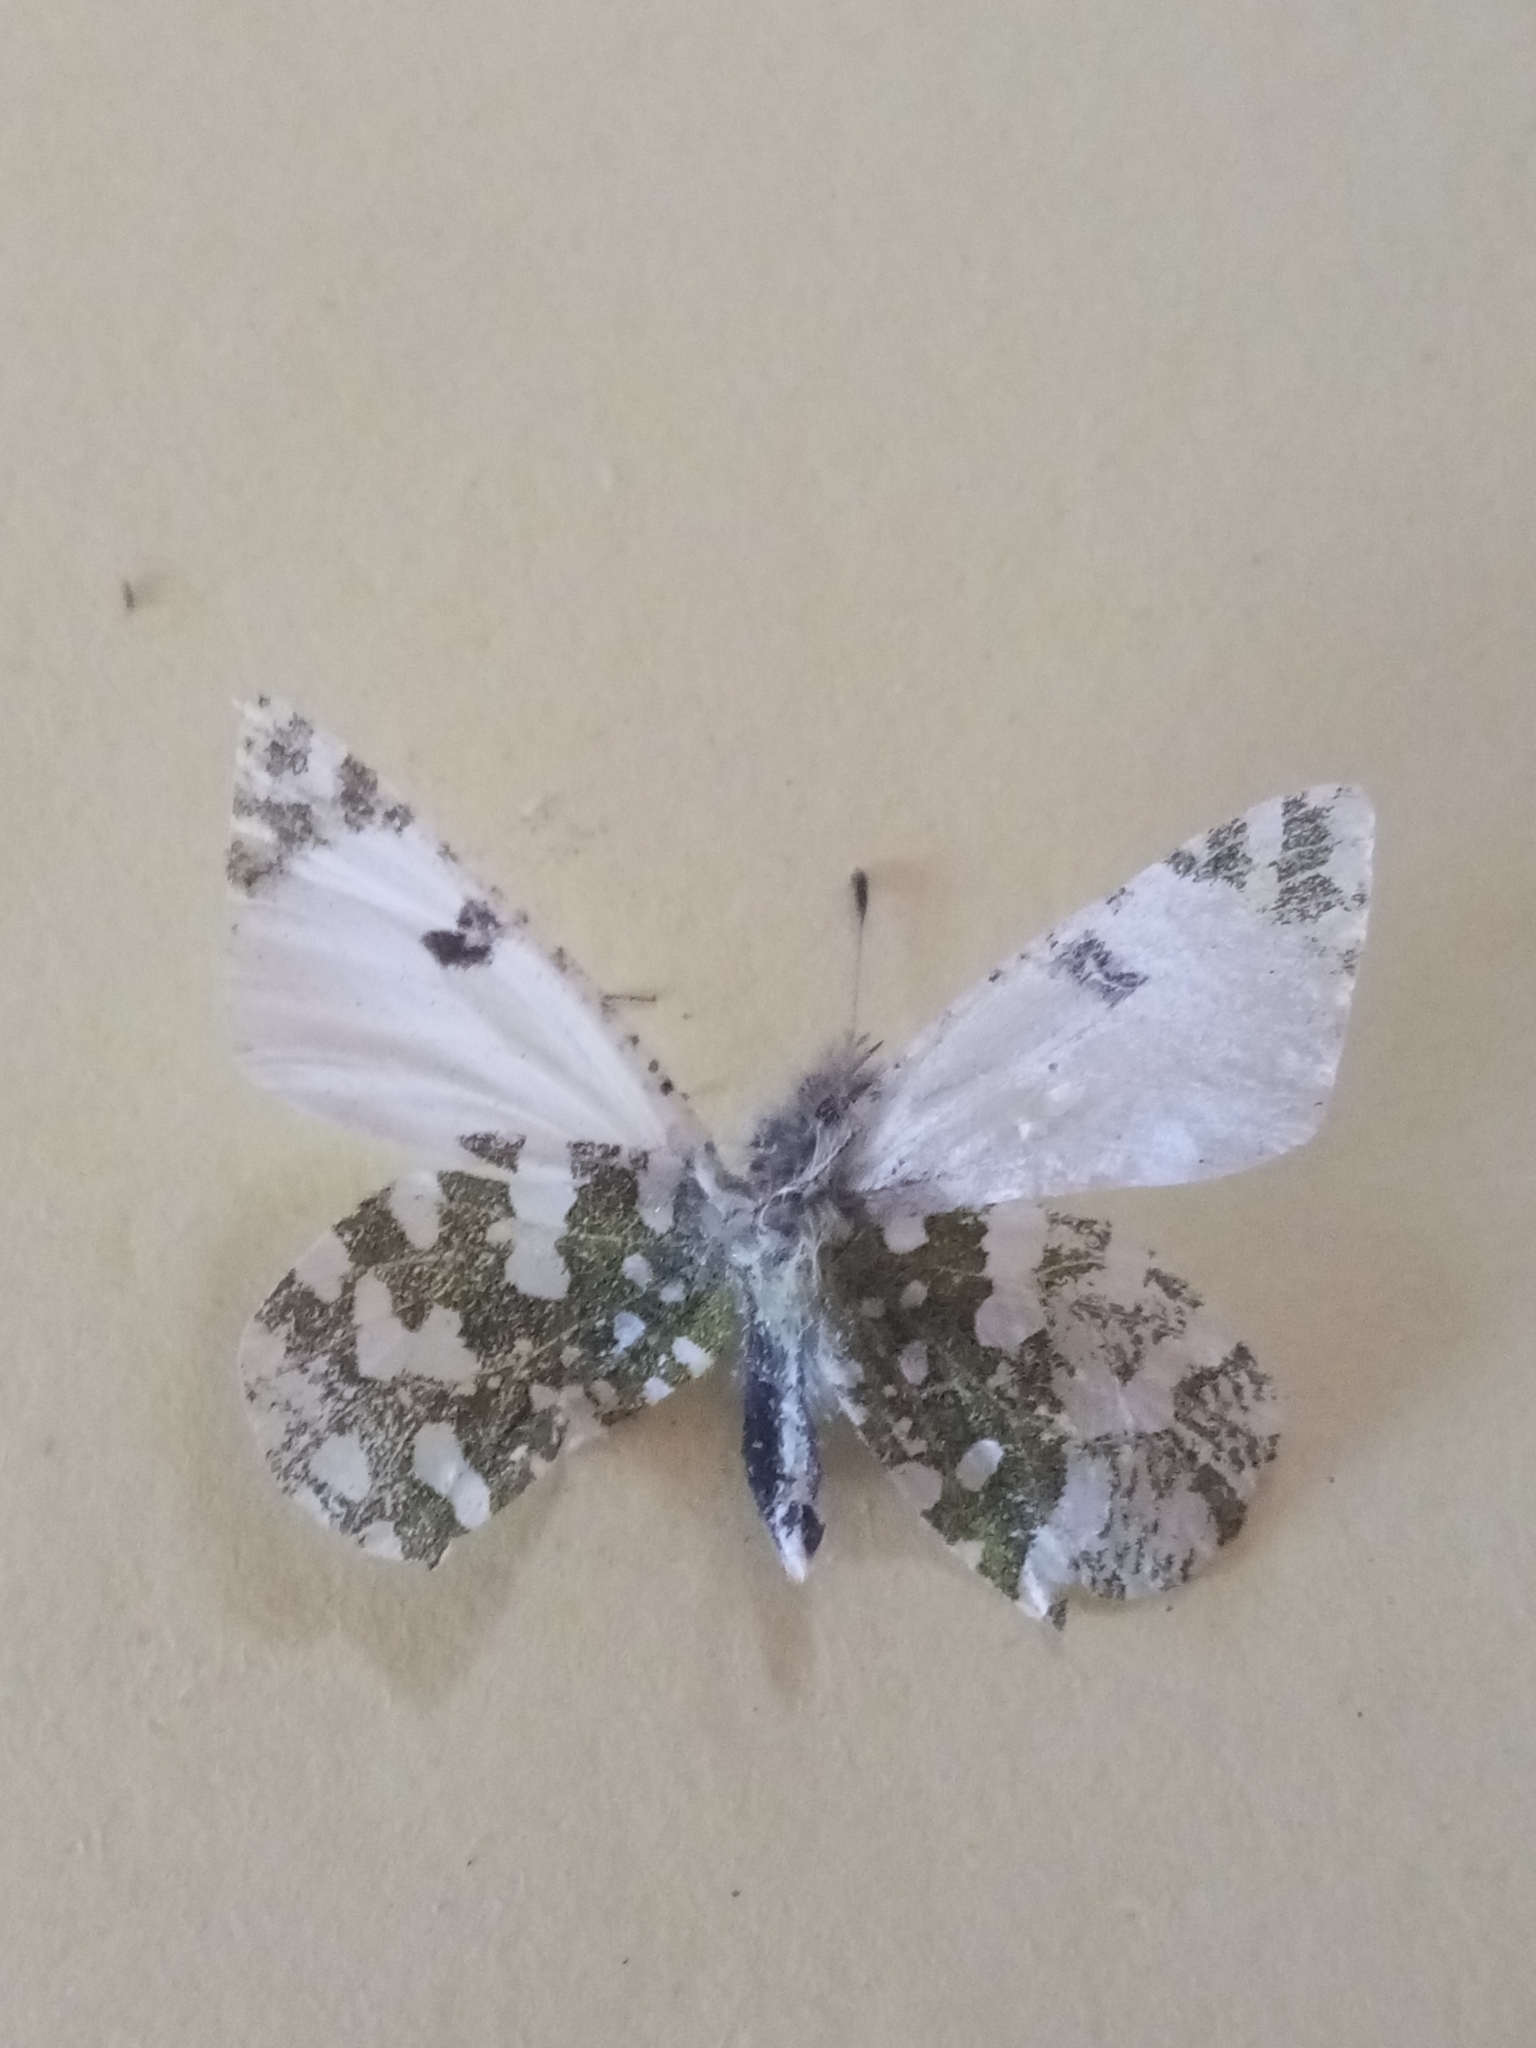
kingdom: Animalia
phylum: Arthropoda
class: Insecta
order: Lepidoptera
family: Pieridae
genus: Euchloe
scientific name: Euchloe crameri
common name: Western dappled white
